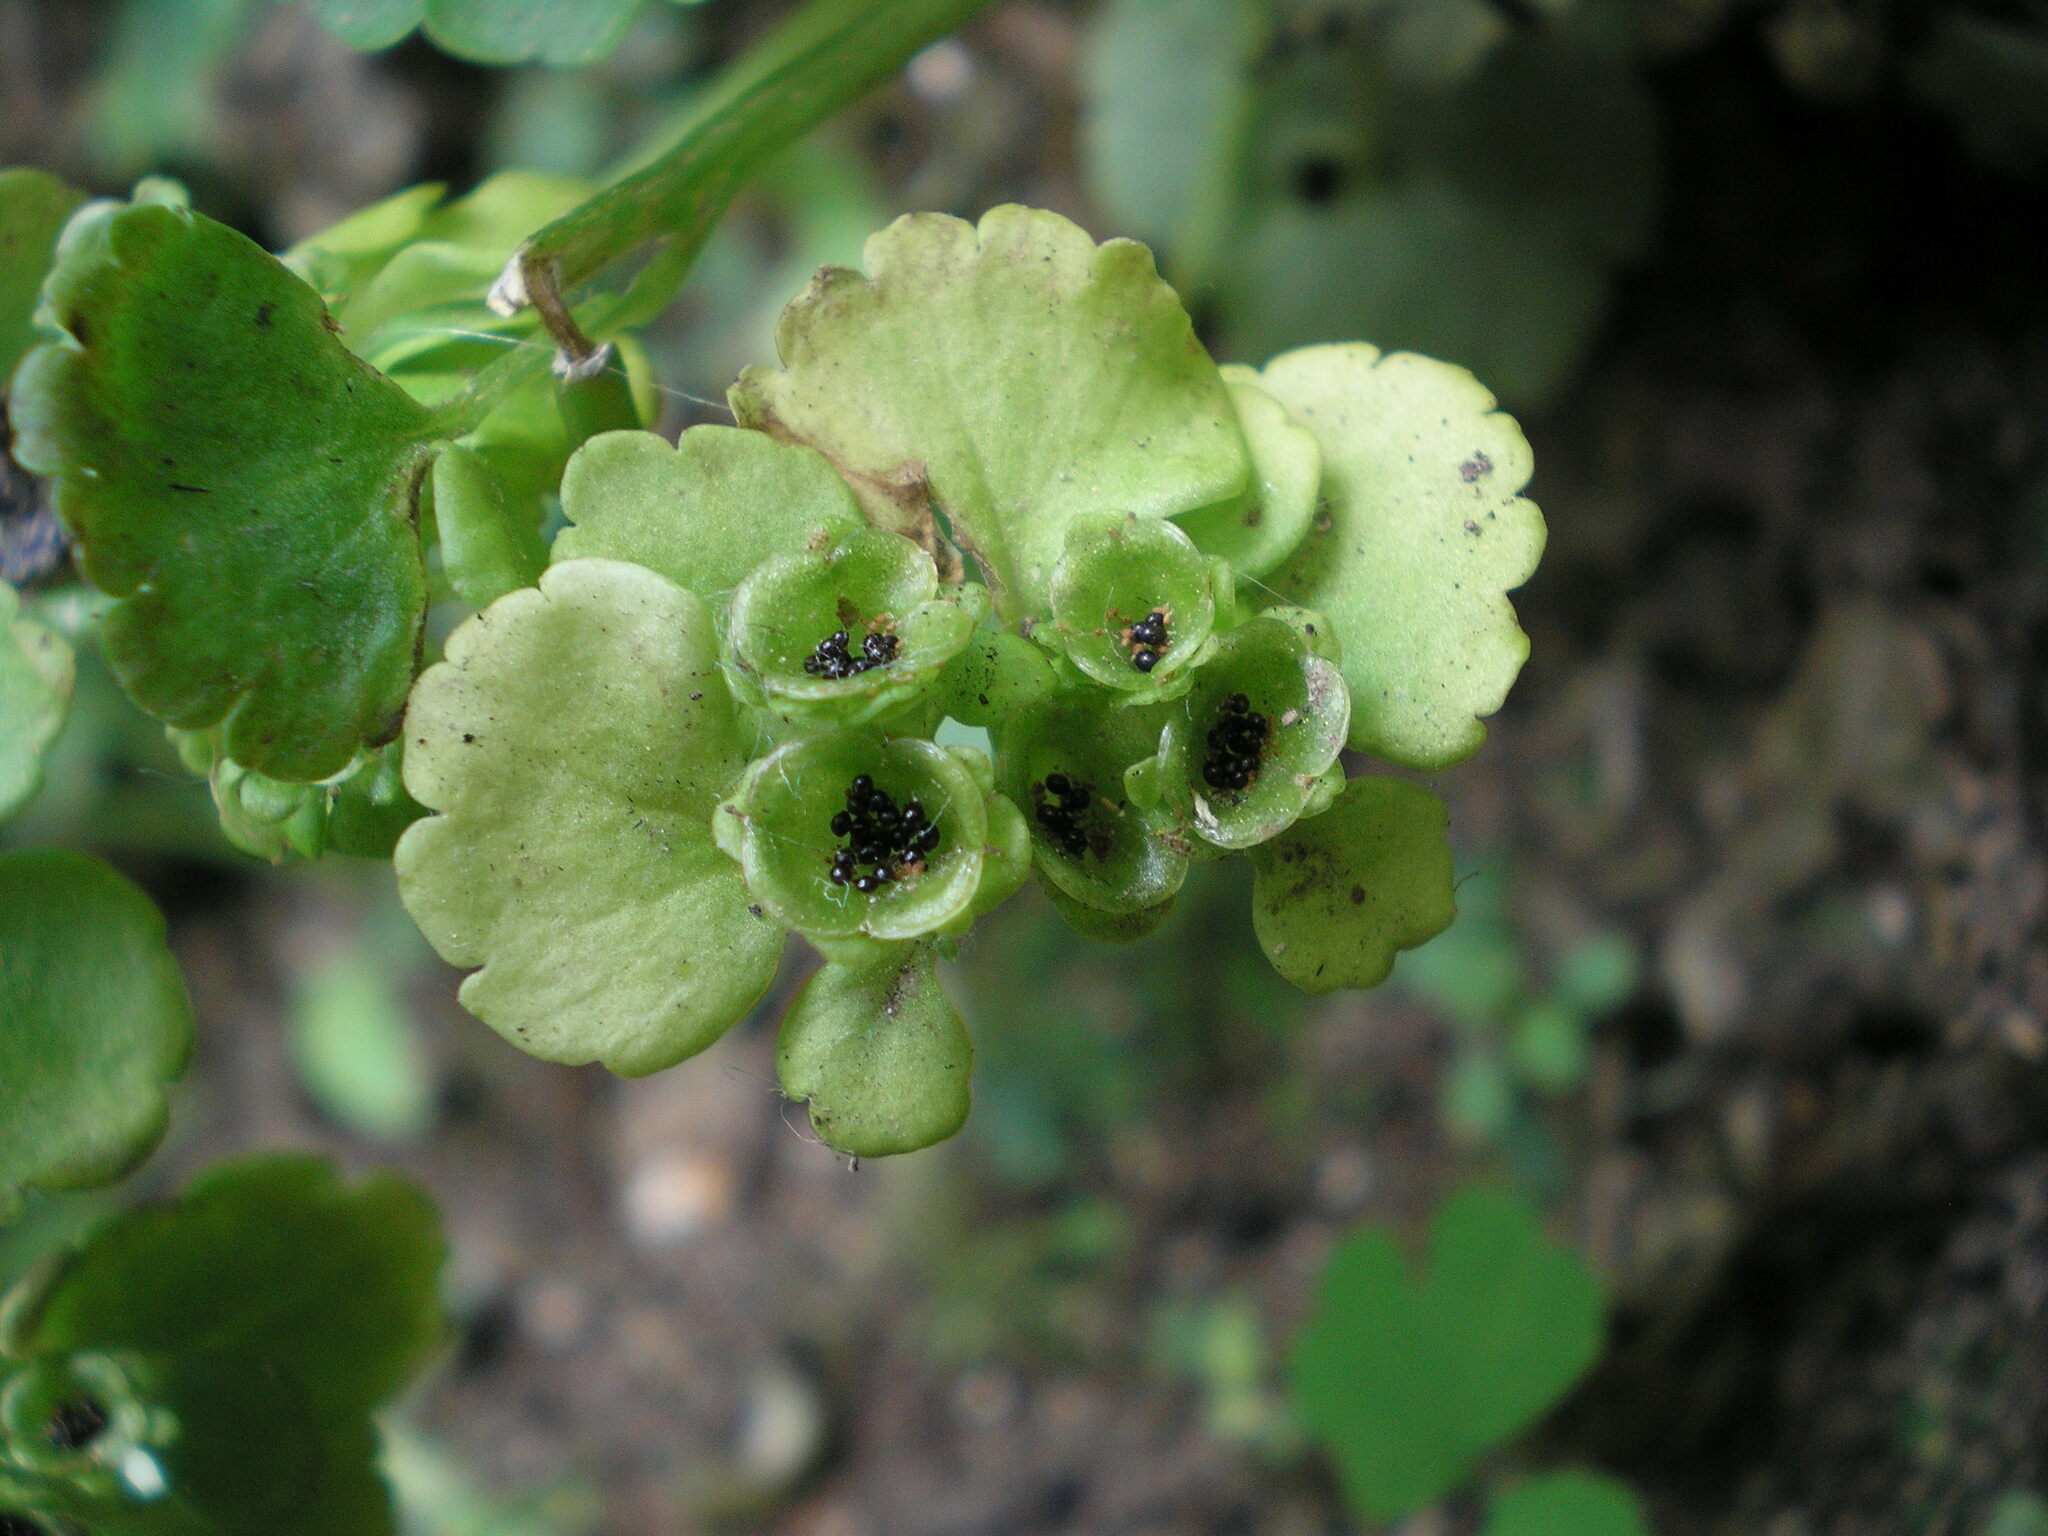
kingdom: Plantae
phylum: Tracheophyta
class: Magnoliopsida
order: Saxifragales
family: Saxifragaceae
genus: Chrysosplenium
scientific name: Chrysosplenium alternifolium
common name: Alternate-leaved golden-saxifrage
